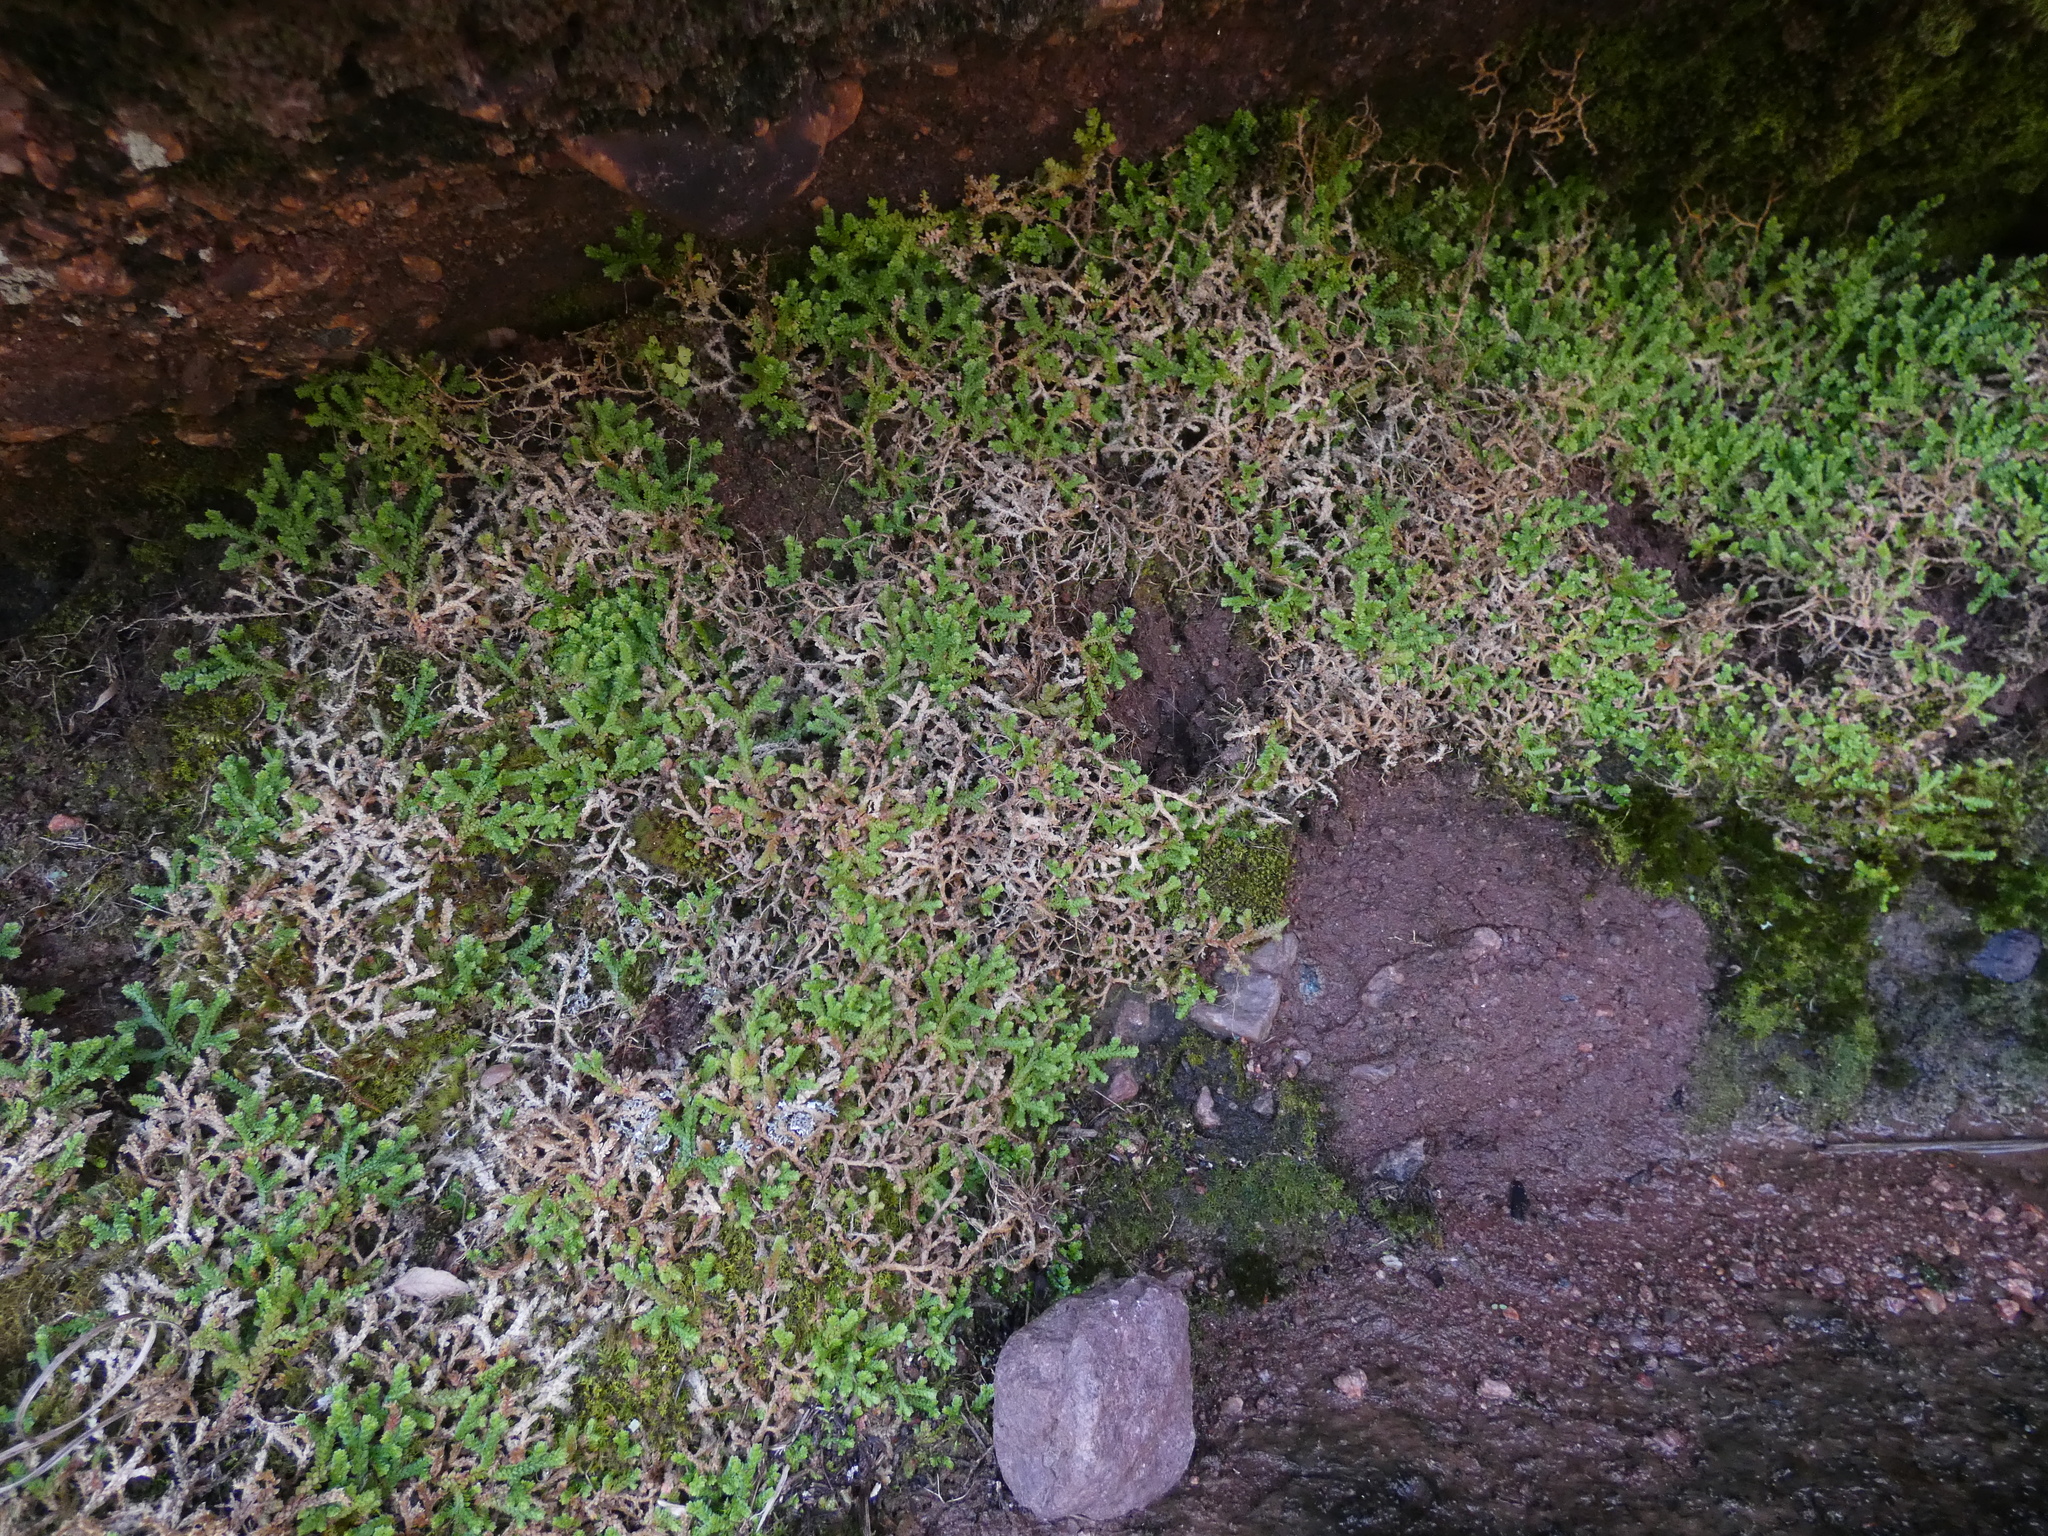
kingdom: Plantae
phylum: Tracheophyta
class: Lycopodiopsida
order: Selaginellales
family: Selaginellaceae
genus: Selaginella
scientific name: Selaginella denticulata
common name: Toothed-leaved clubmoss
